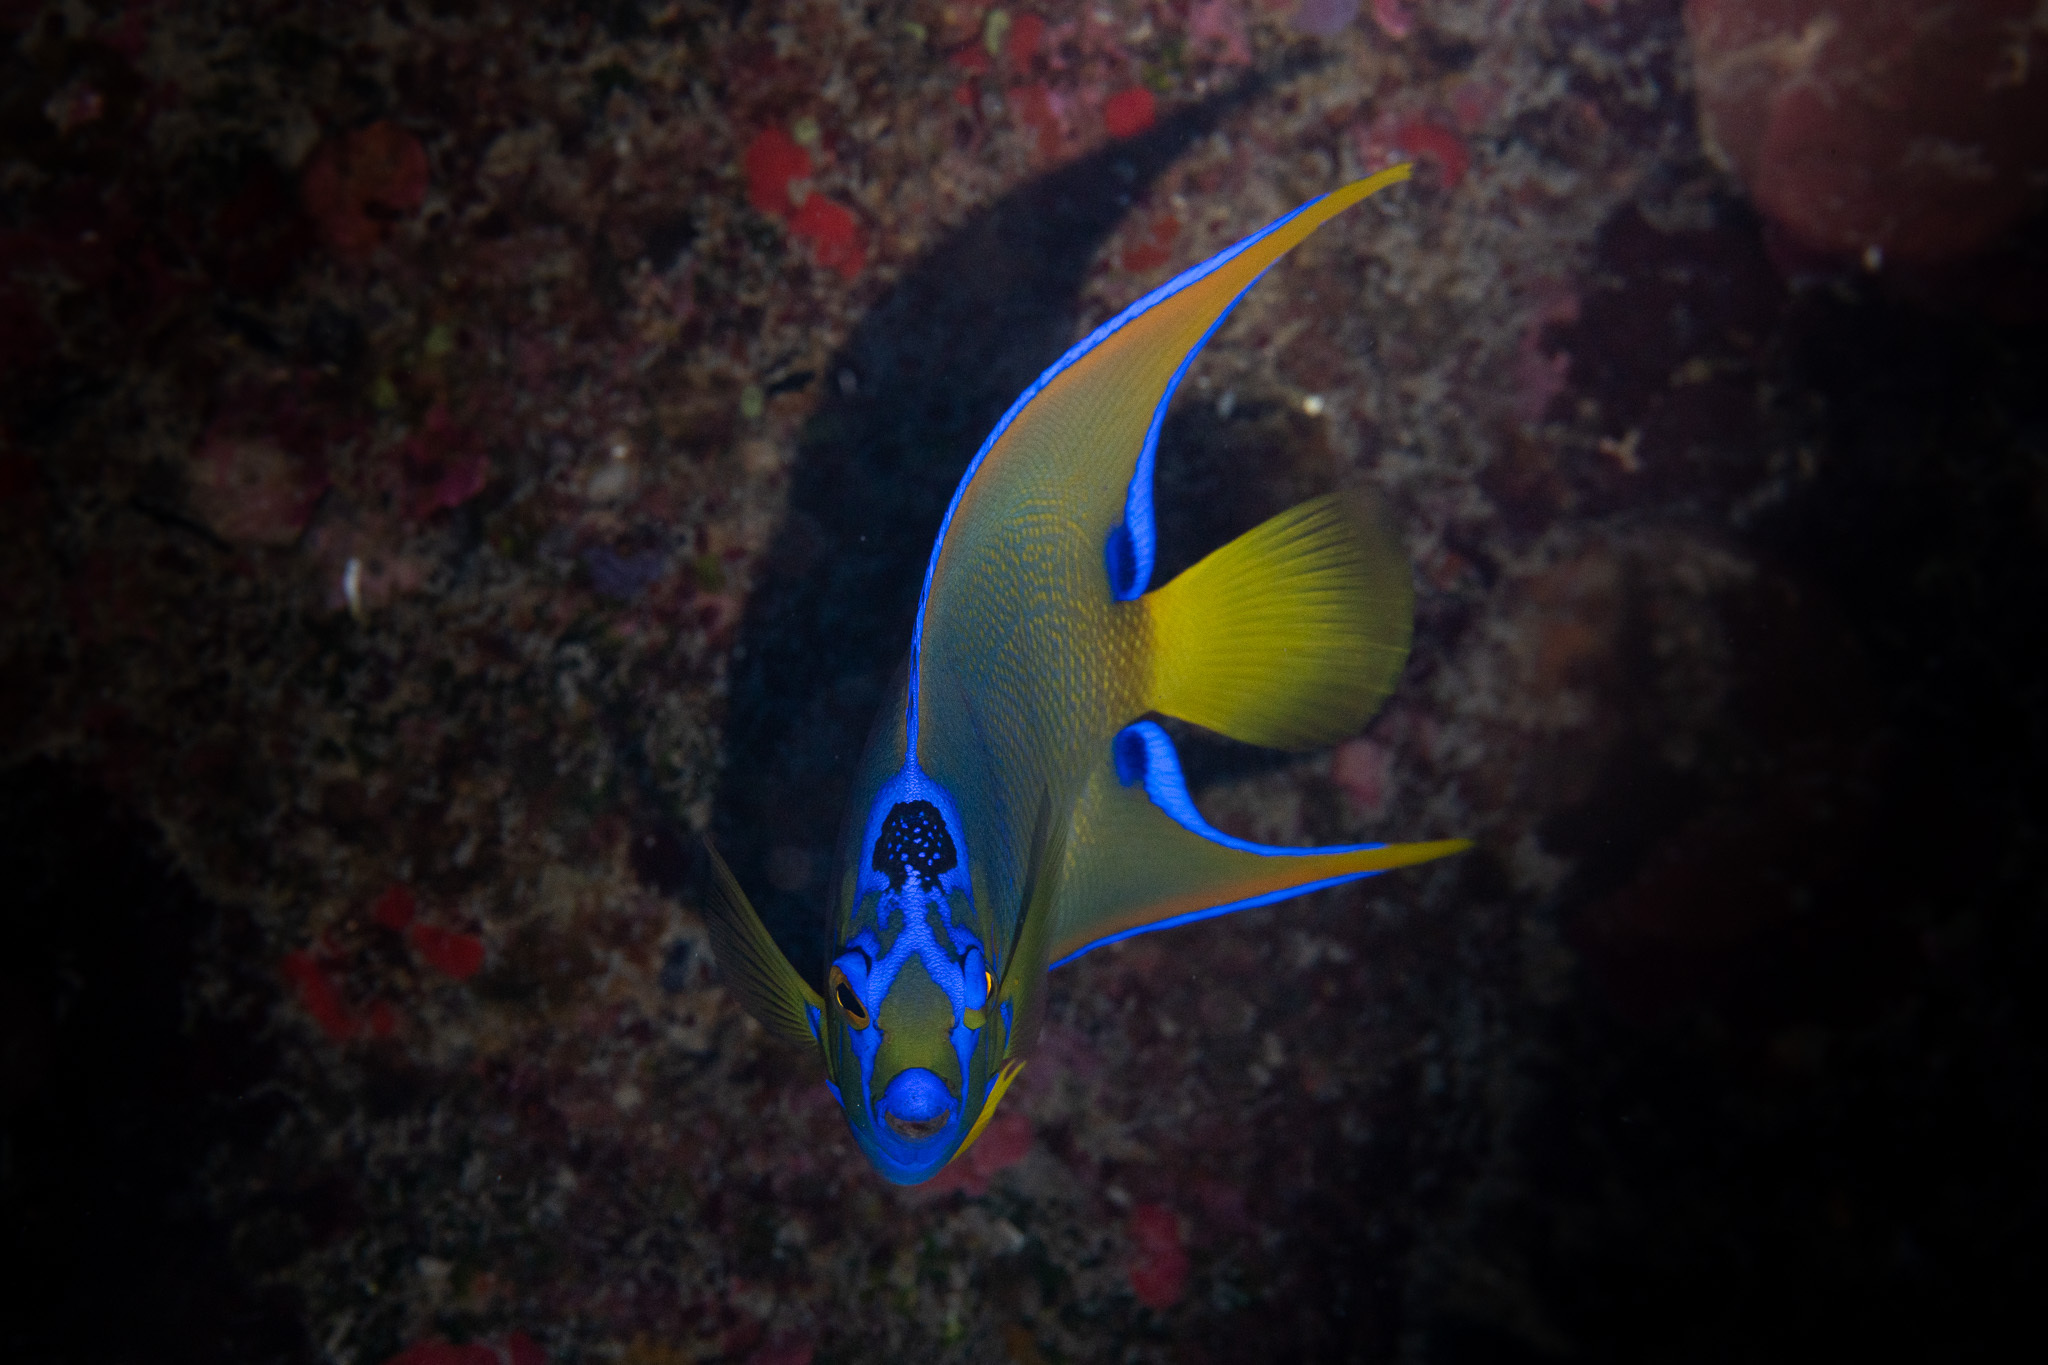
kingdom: Animalia
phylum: Chordata
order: Perciformes
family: Pomacanthidae
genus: Holacanthus
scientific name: Holacanthus ciliaris
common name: Queen angelfish
